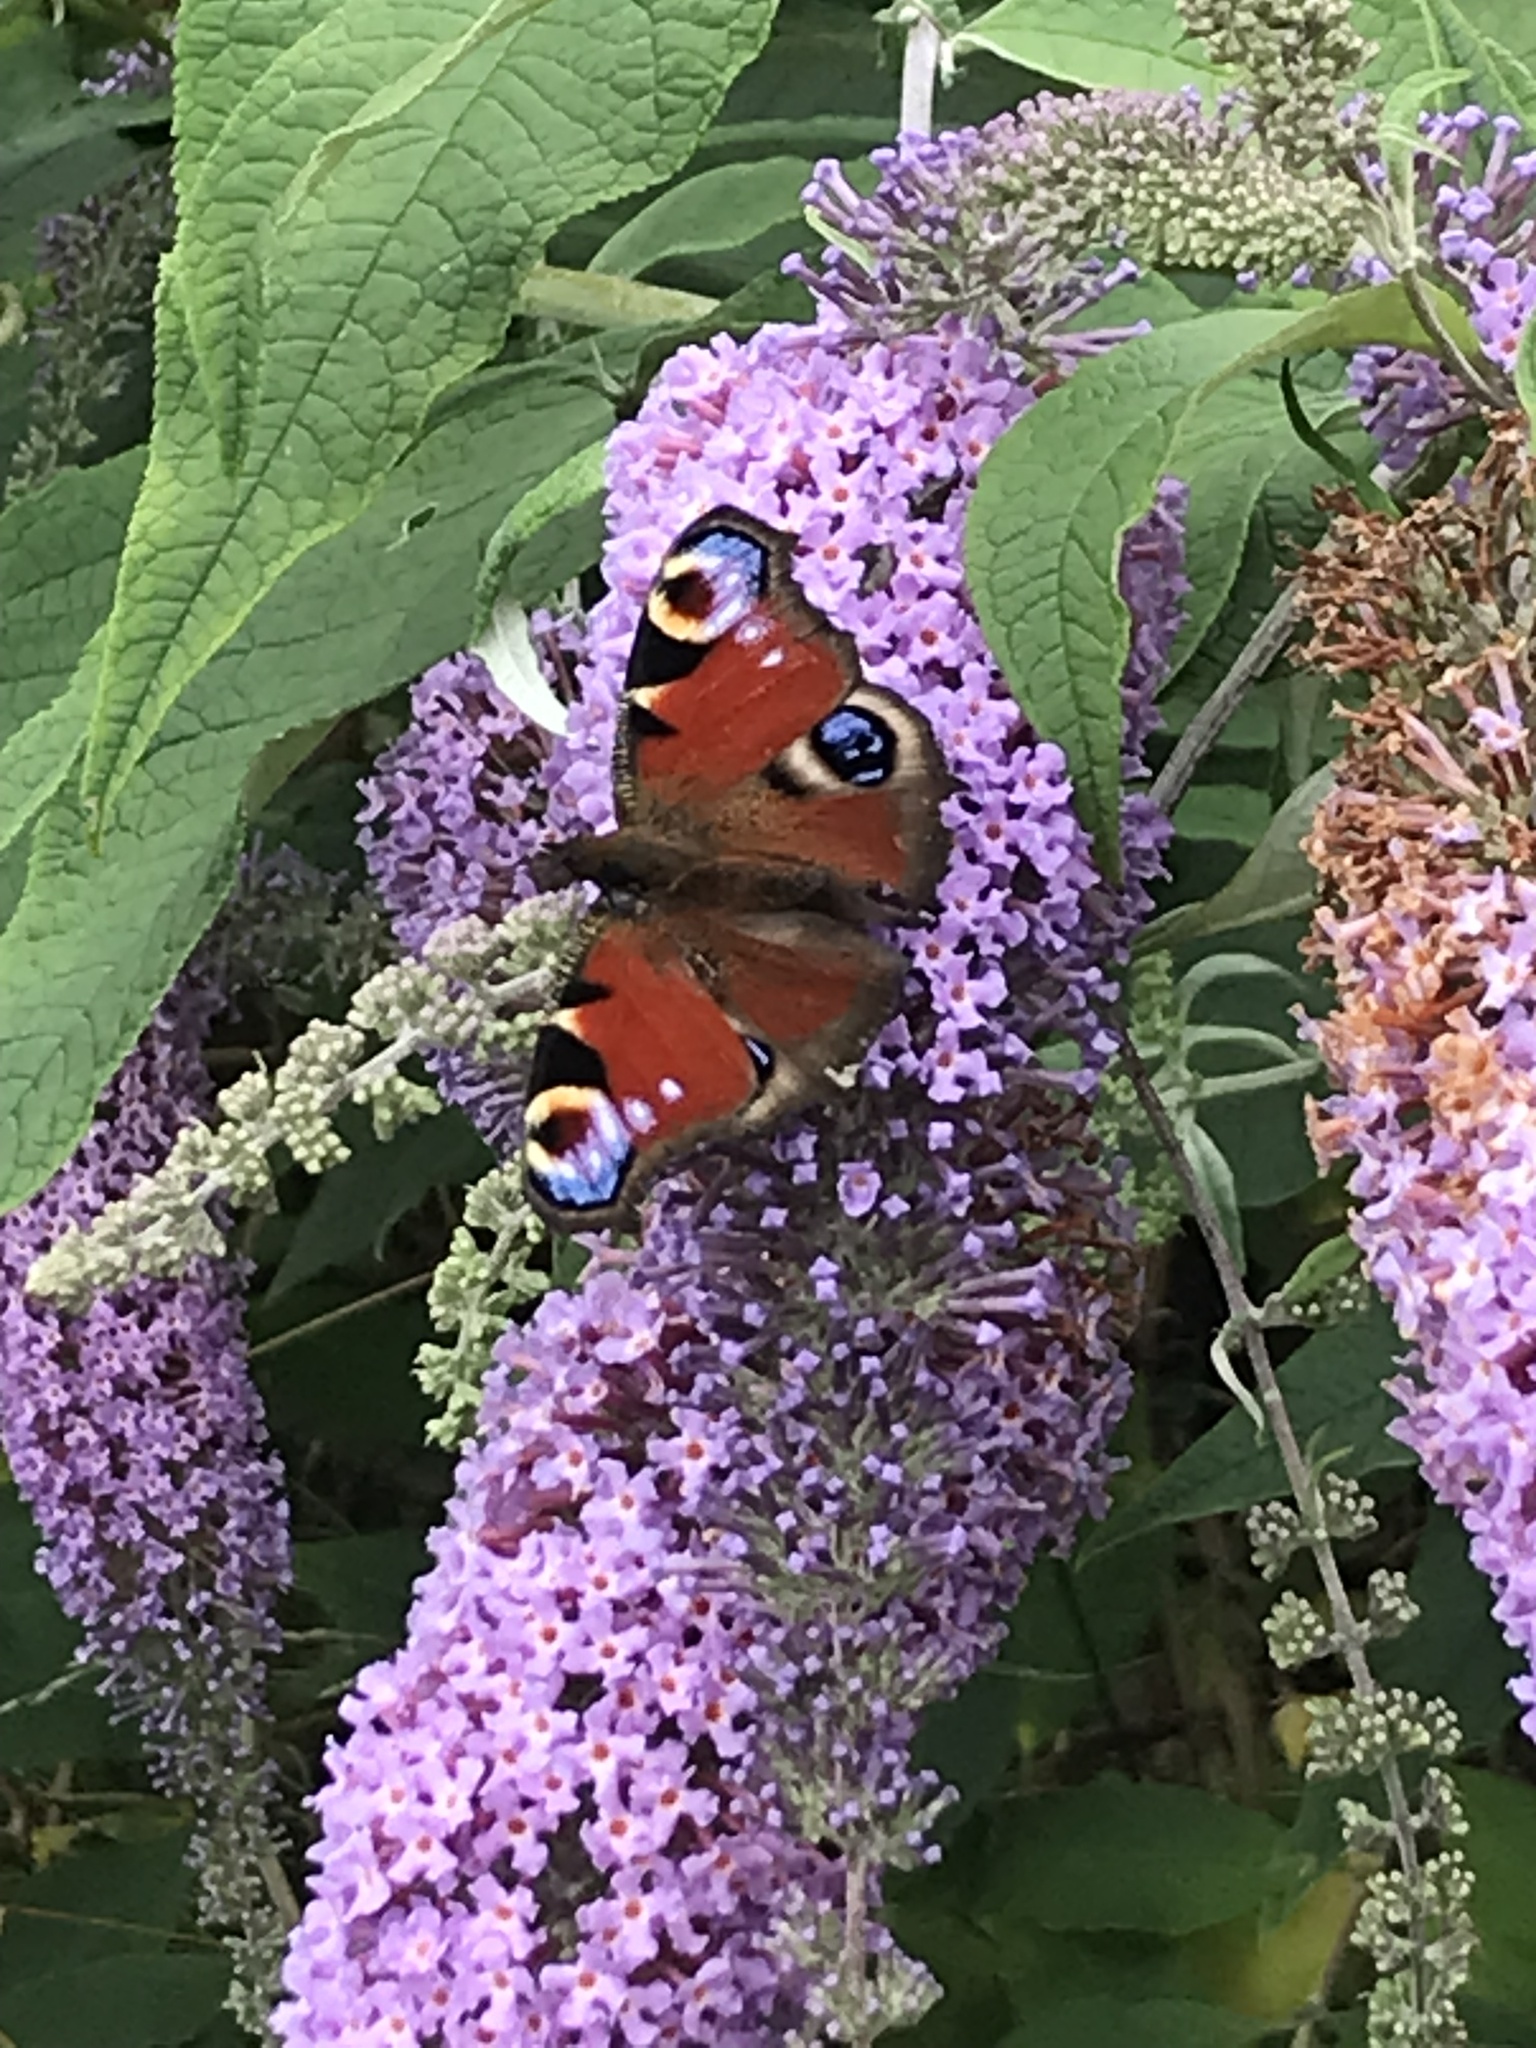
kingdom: Animalia
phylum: Arthropoda
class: Insecta
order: Lepidoptera
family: Nymphalidae
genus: Aglais
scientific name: Aglais io
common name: Peacock
